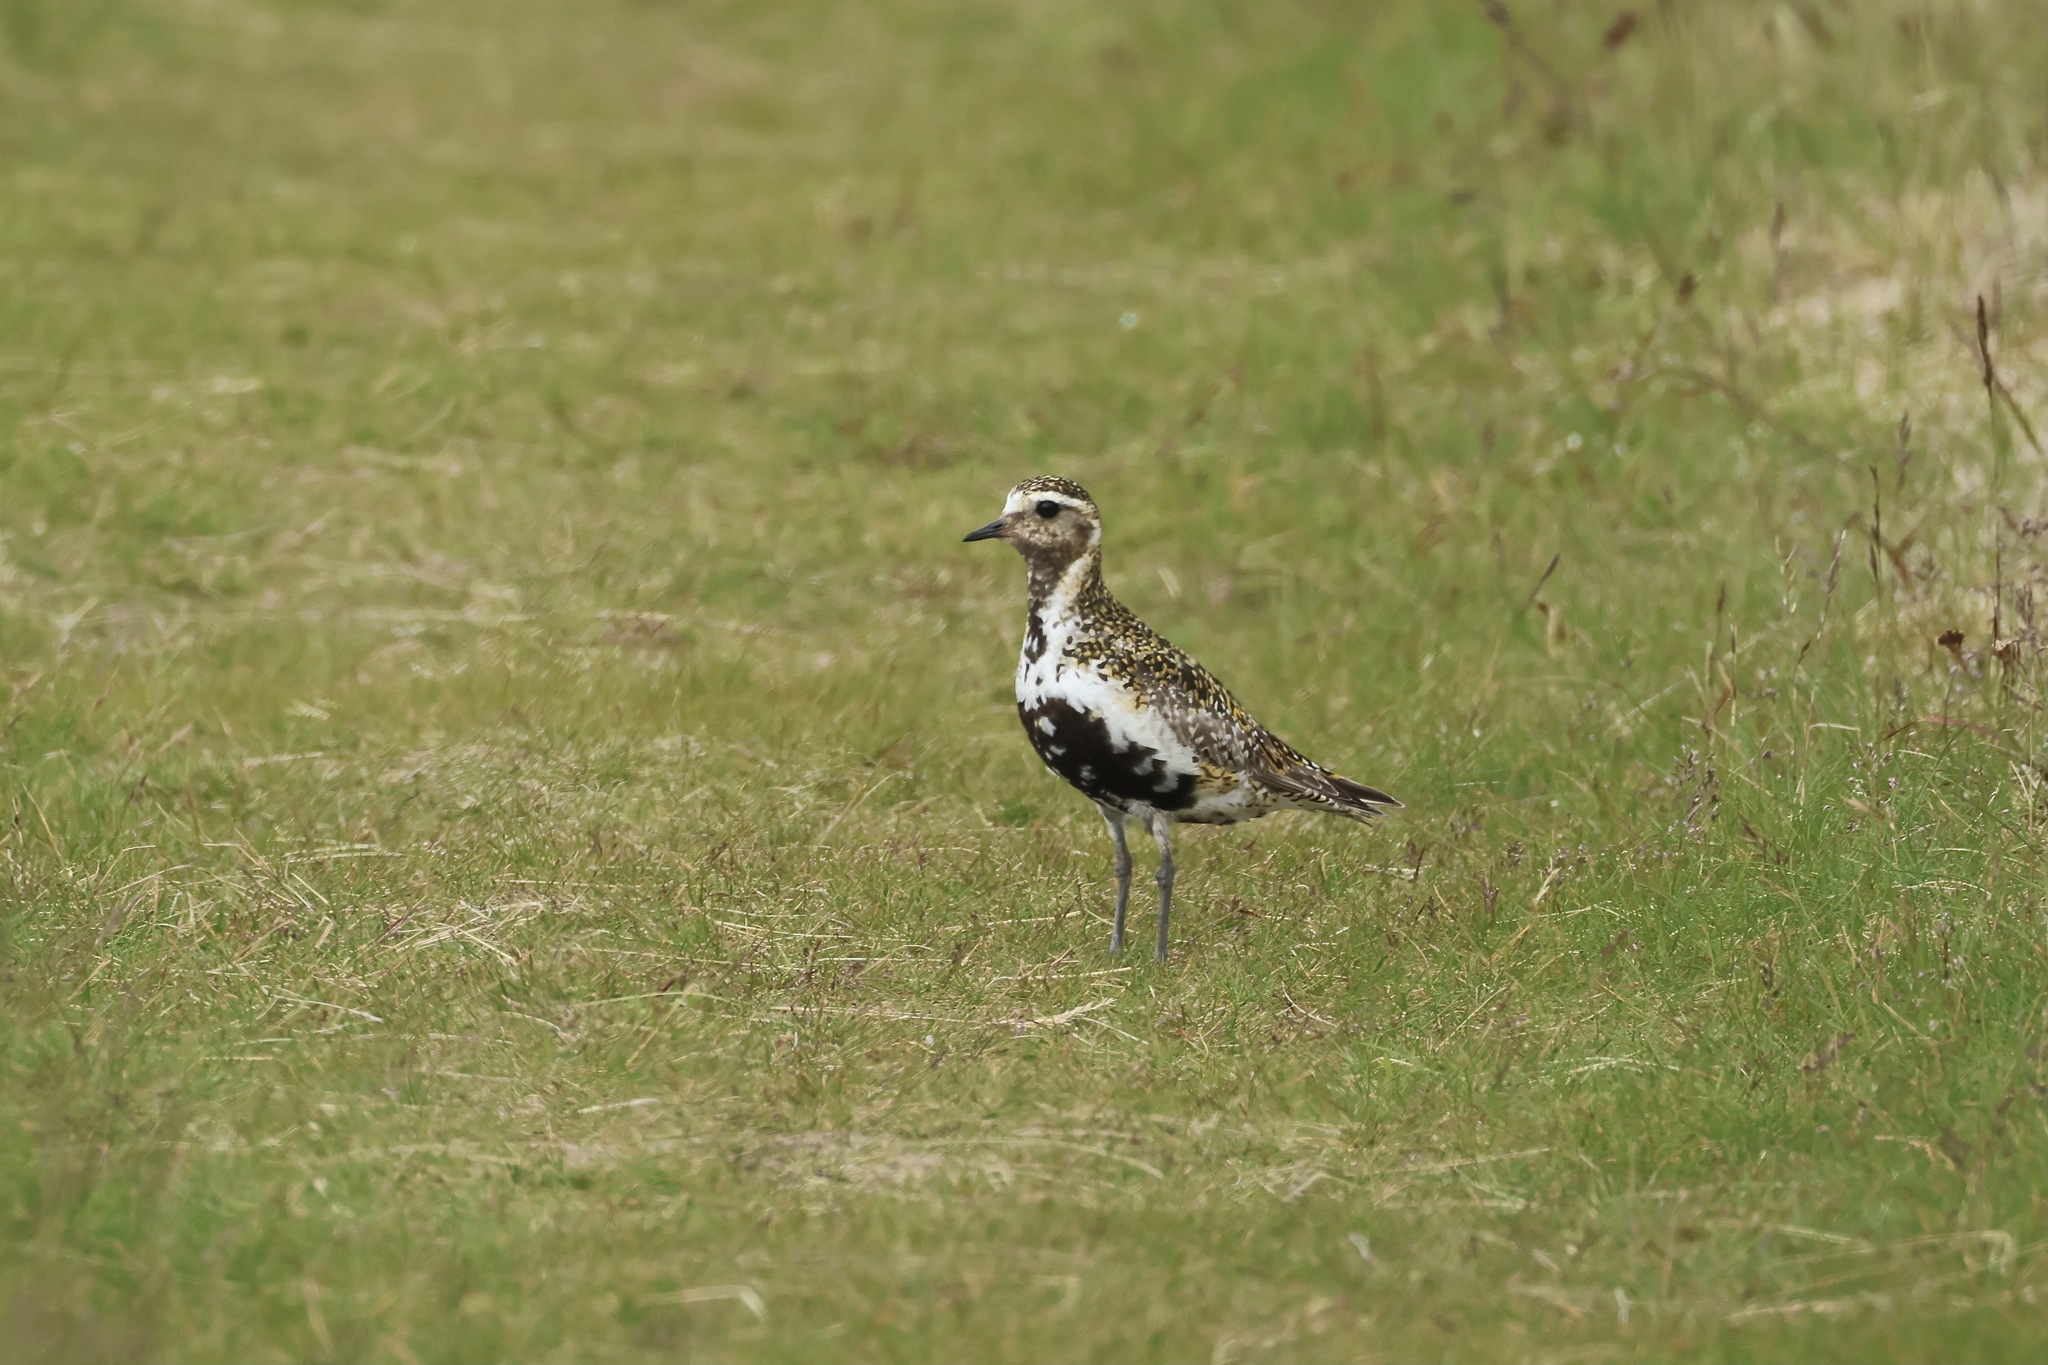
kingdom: Animalia
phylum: Chordata
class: Aves
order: Charadriiformes
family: Charadriidae
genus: Pluvialis
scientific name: Pluvialis apricaria
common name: European golden plover
